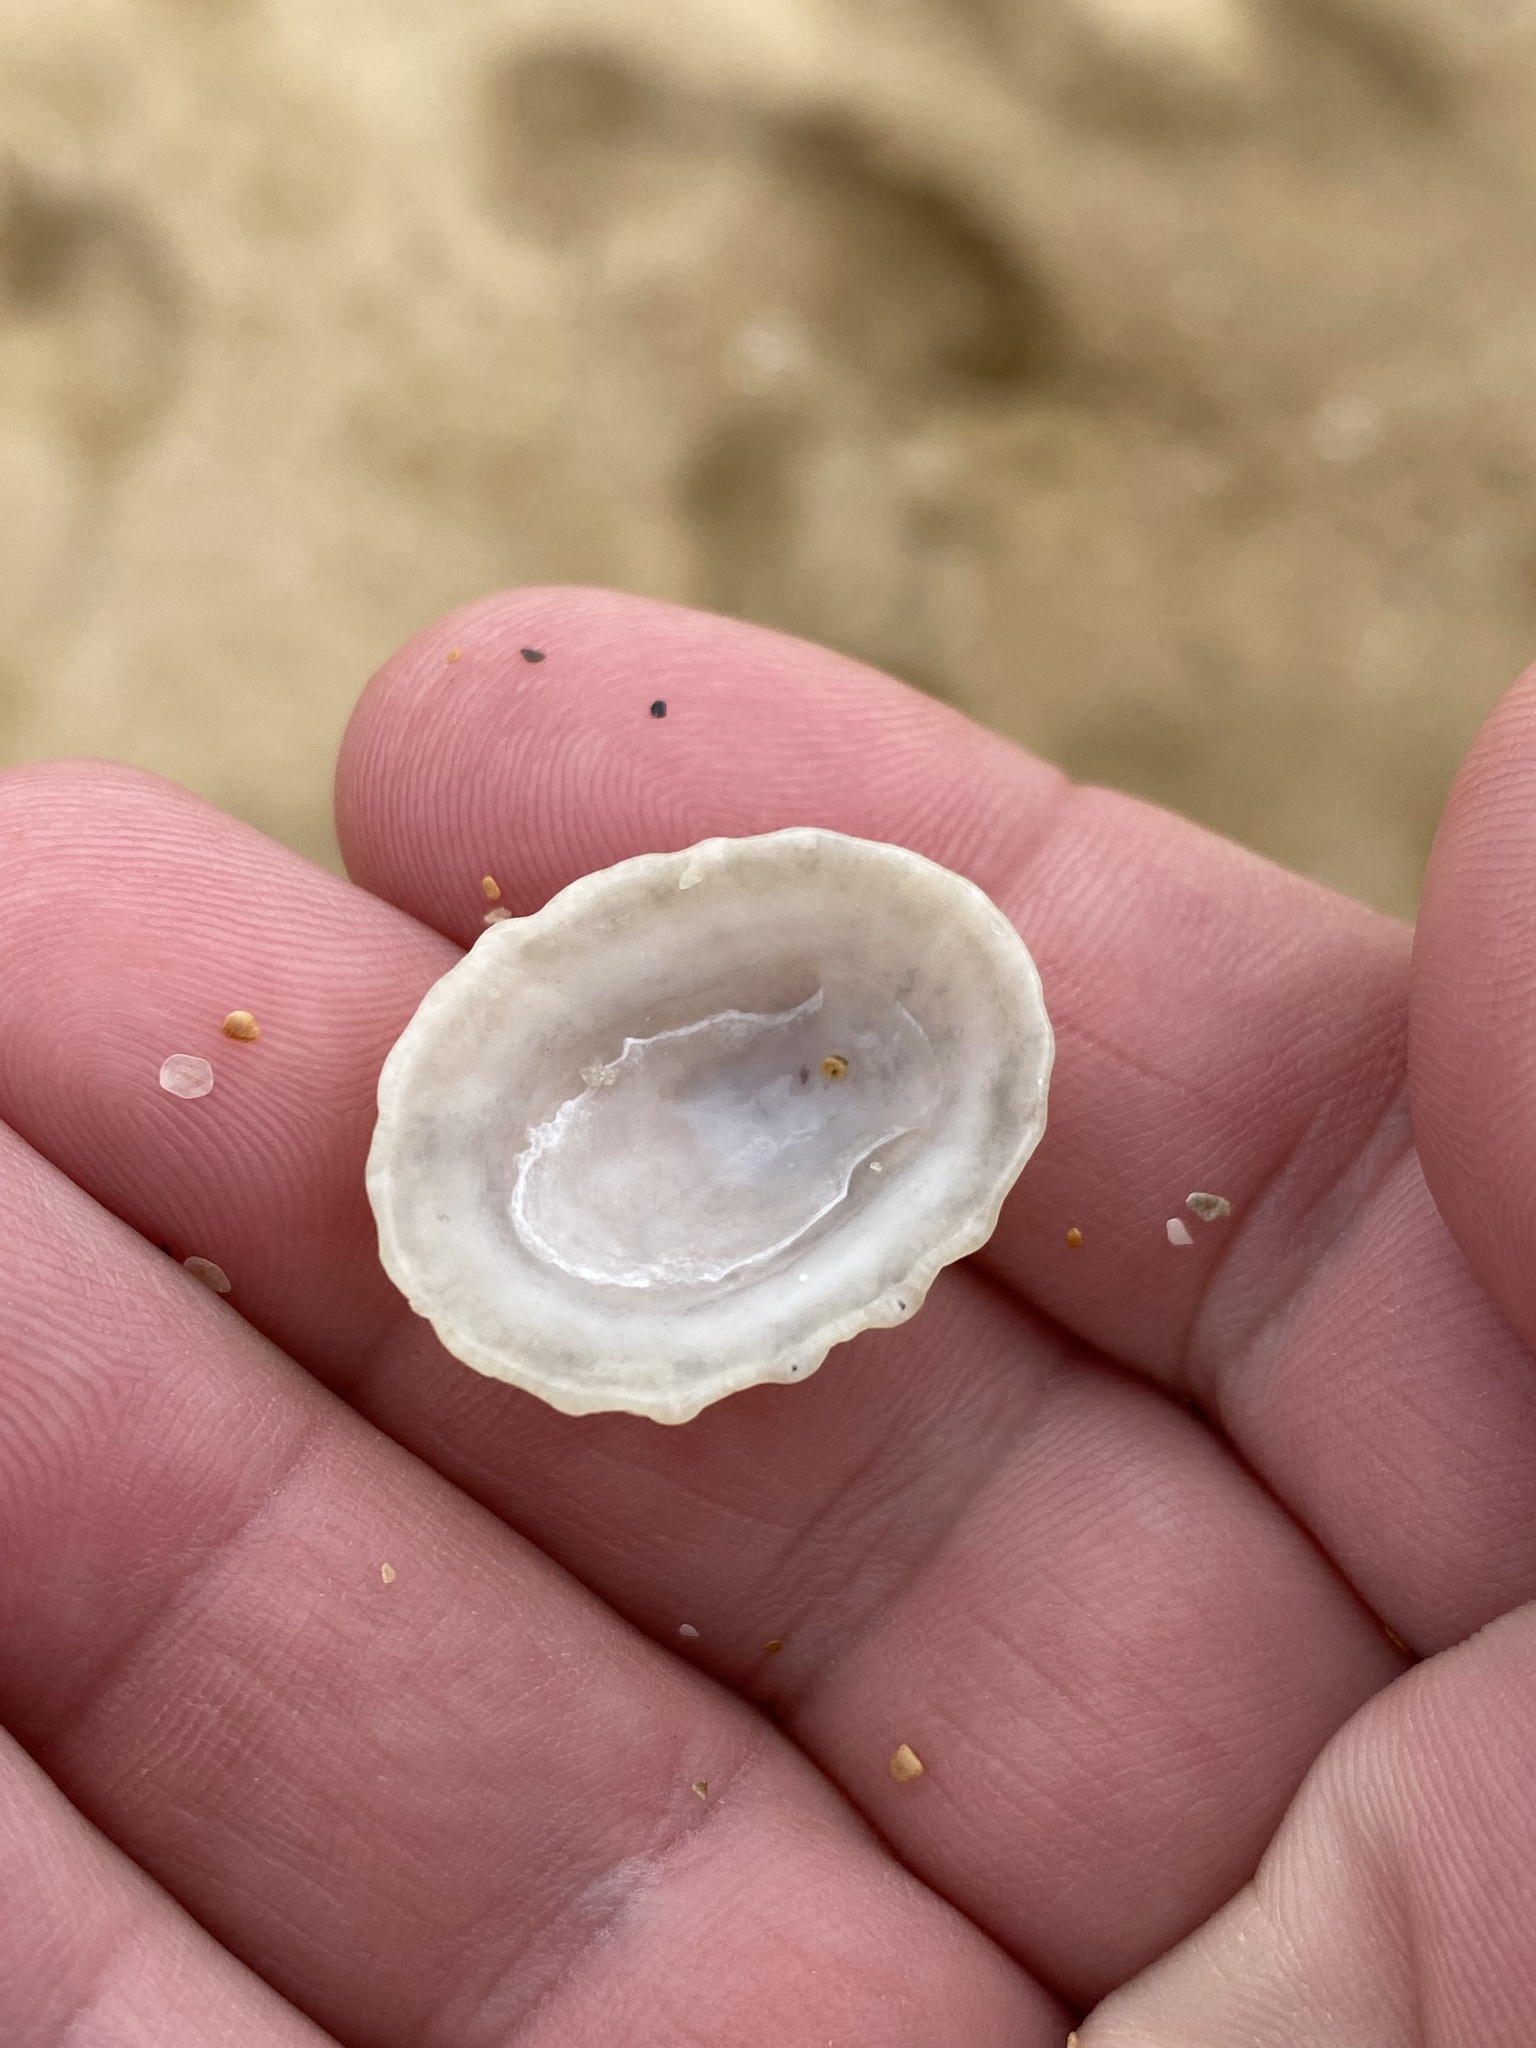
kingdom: Animalia
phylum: Mollusca
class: Gastropoda
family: Patellidae
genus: Scutellastra
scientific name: Scutellastra peronii
